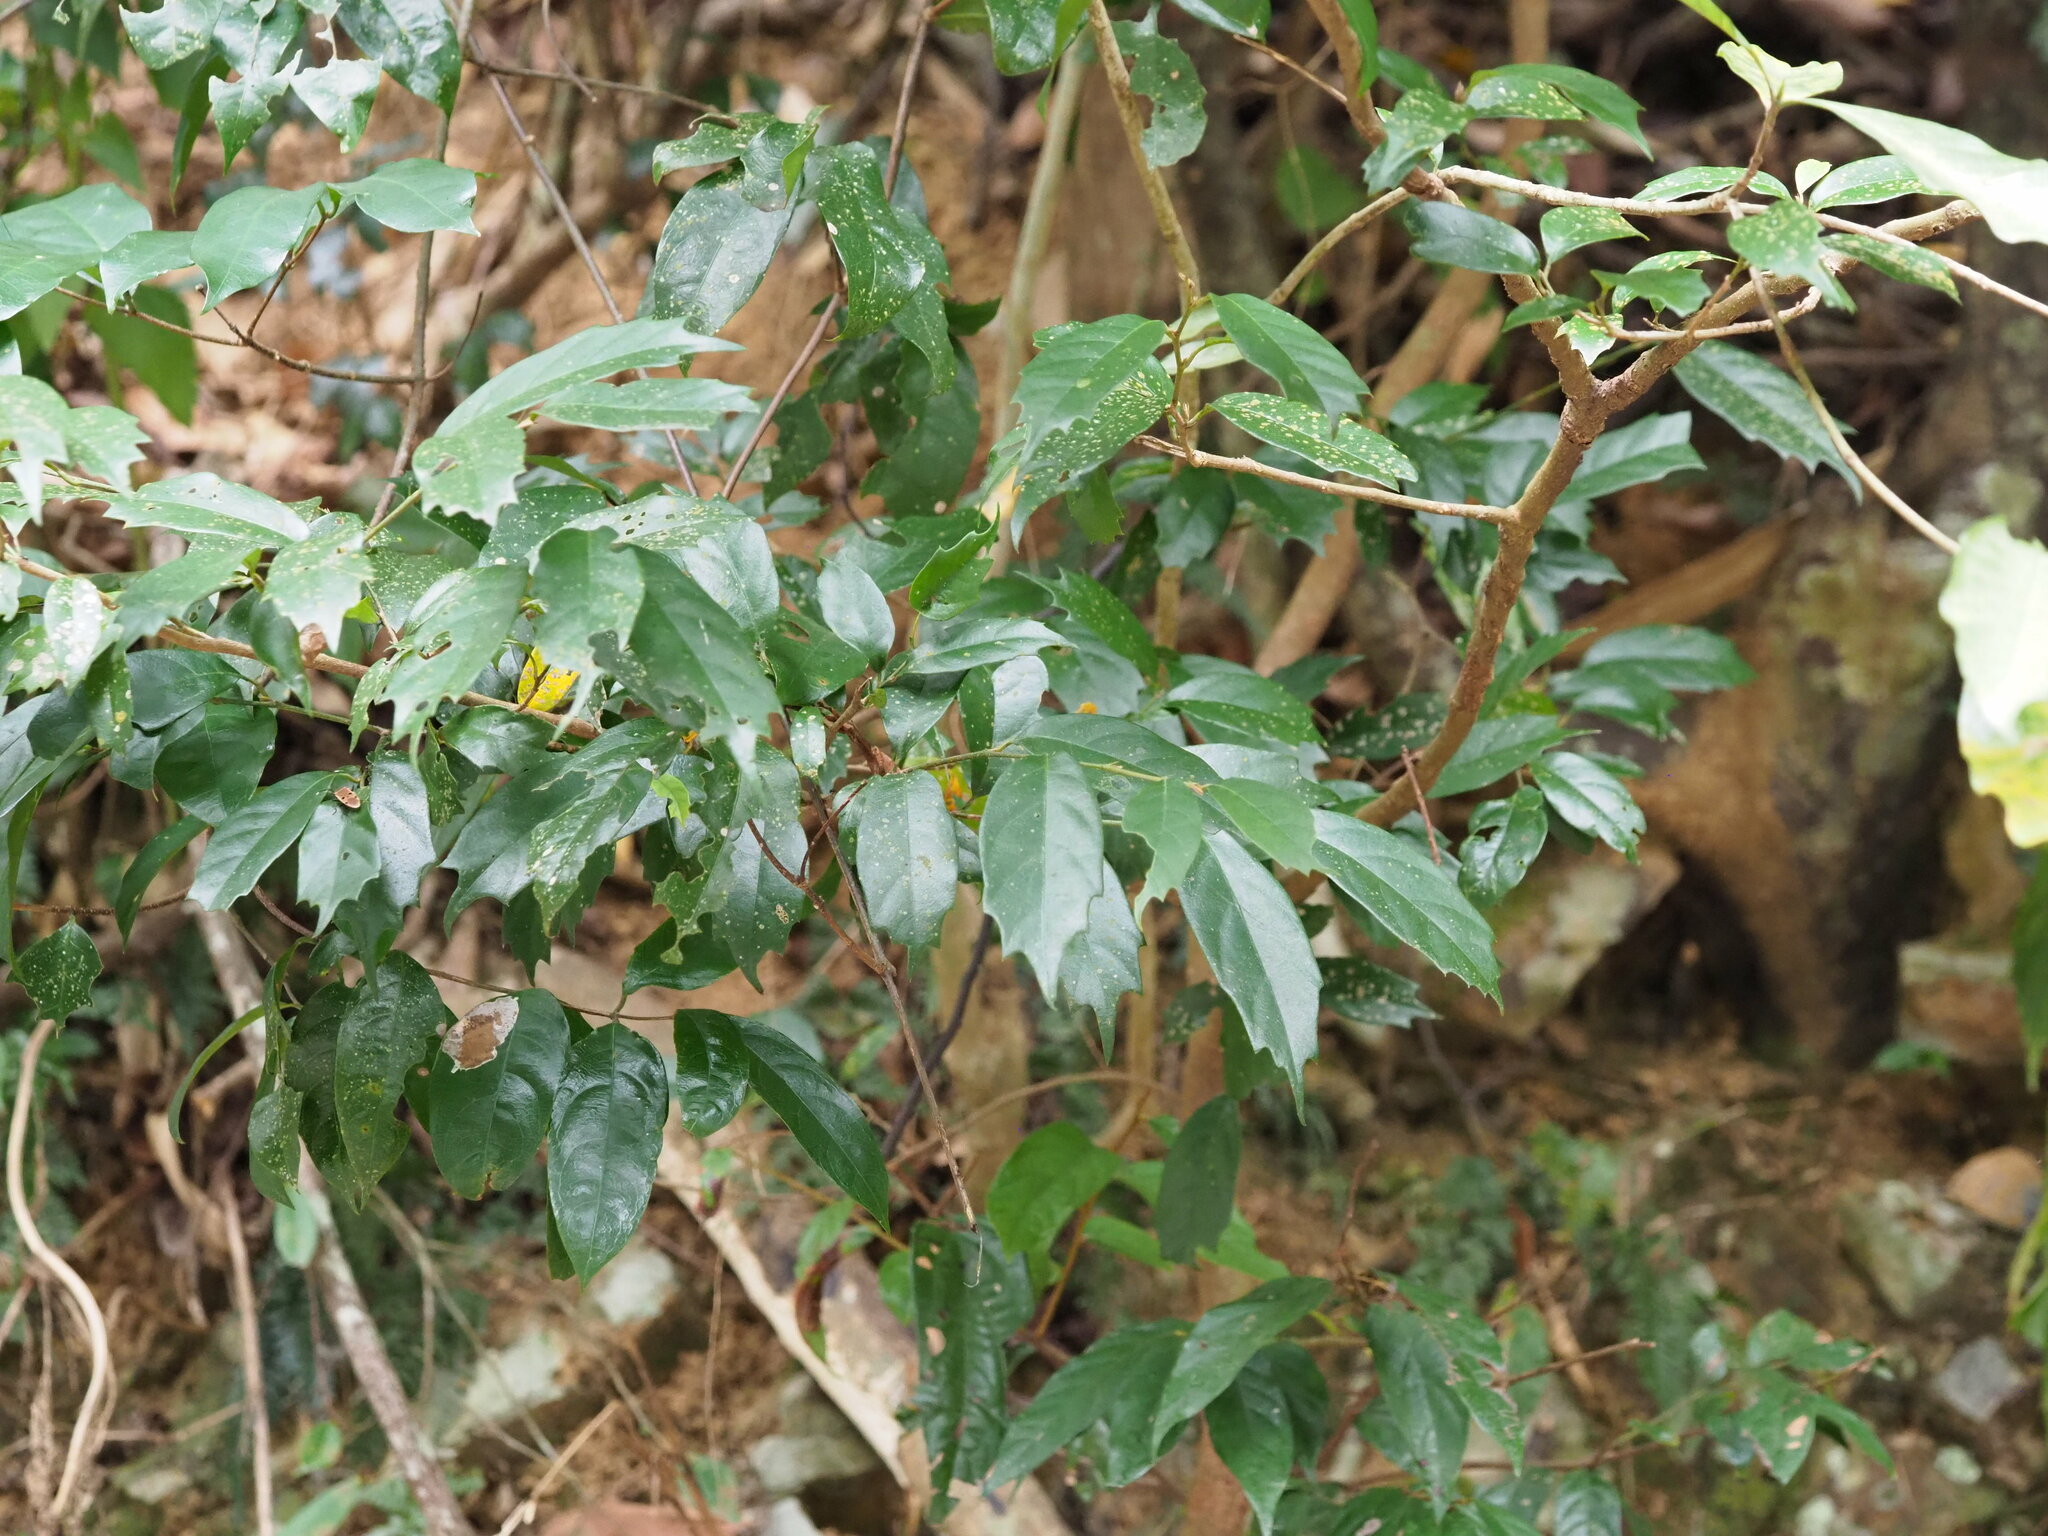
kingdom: Plantae
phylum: Tracheophyta
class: Magnoliopsida
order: Saxifragales
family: Hamamelidaceae
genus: Eustigma
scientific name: Eustigma oblongifolium
